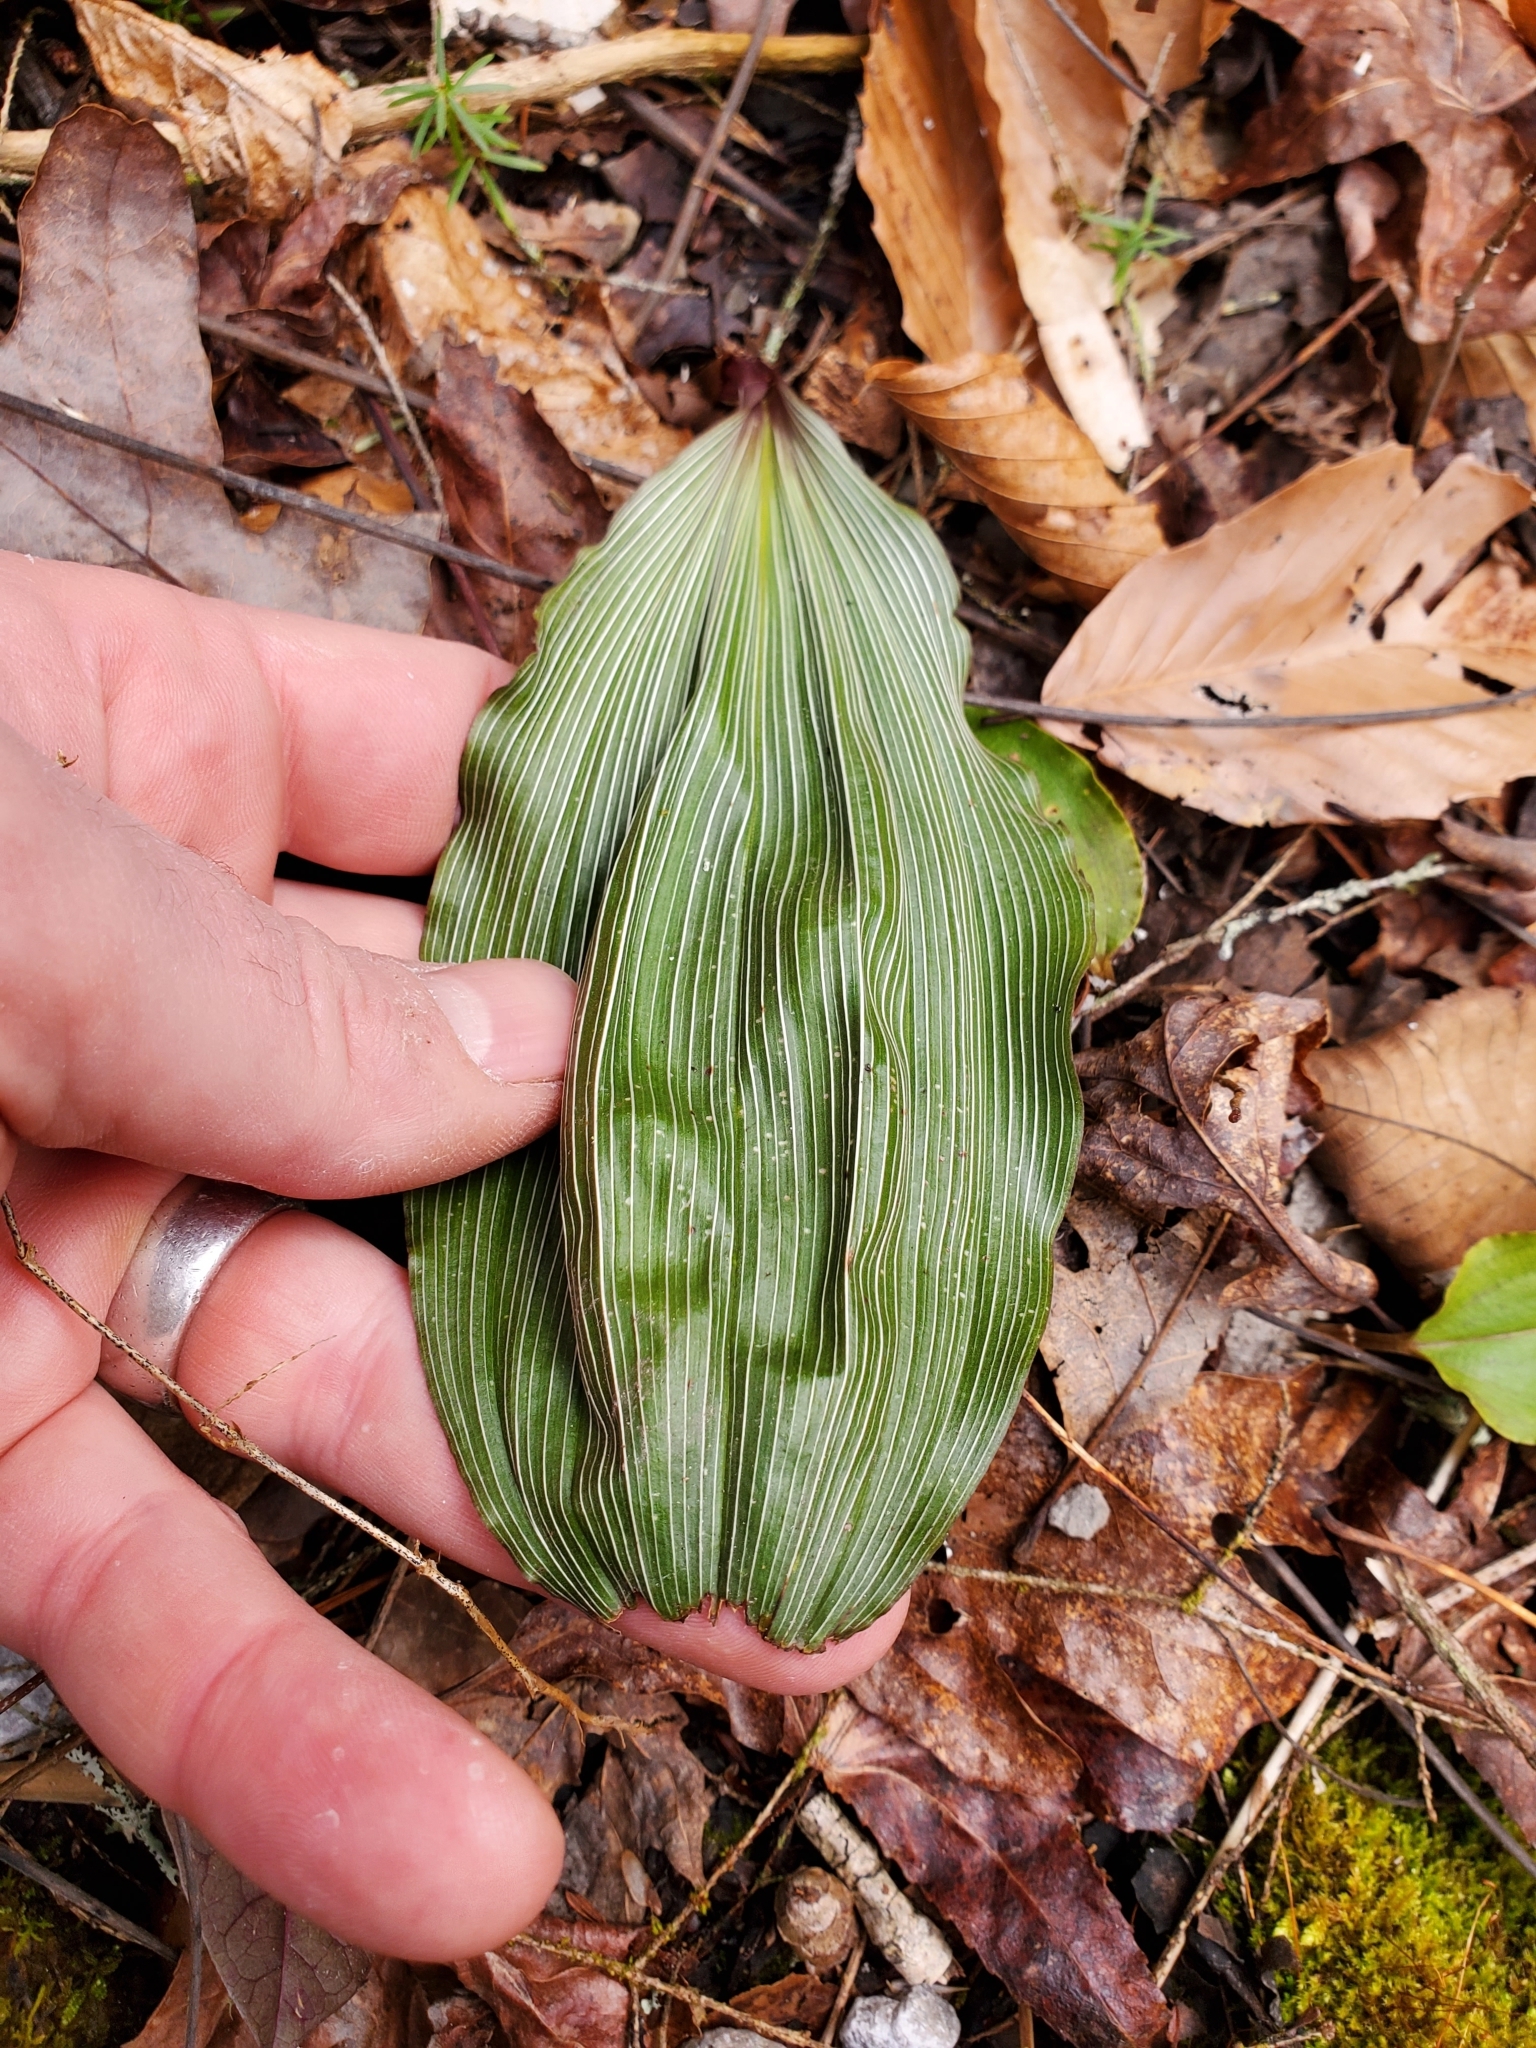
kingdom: Plantae
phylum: Tracheophyta
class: Liliopsida
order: Asparagales
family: Orchidaceae
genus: Aplectrum
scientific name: Aplectrum hyemale
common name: Adam-and-eve
